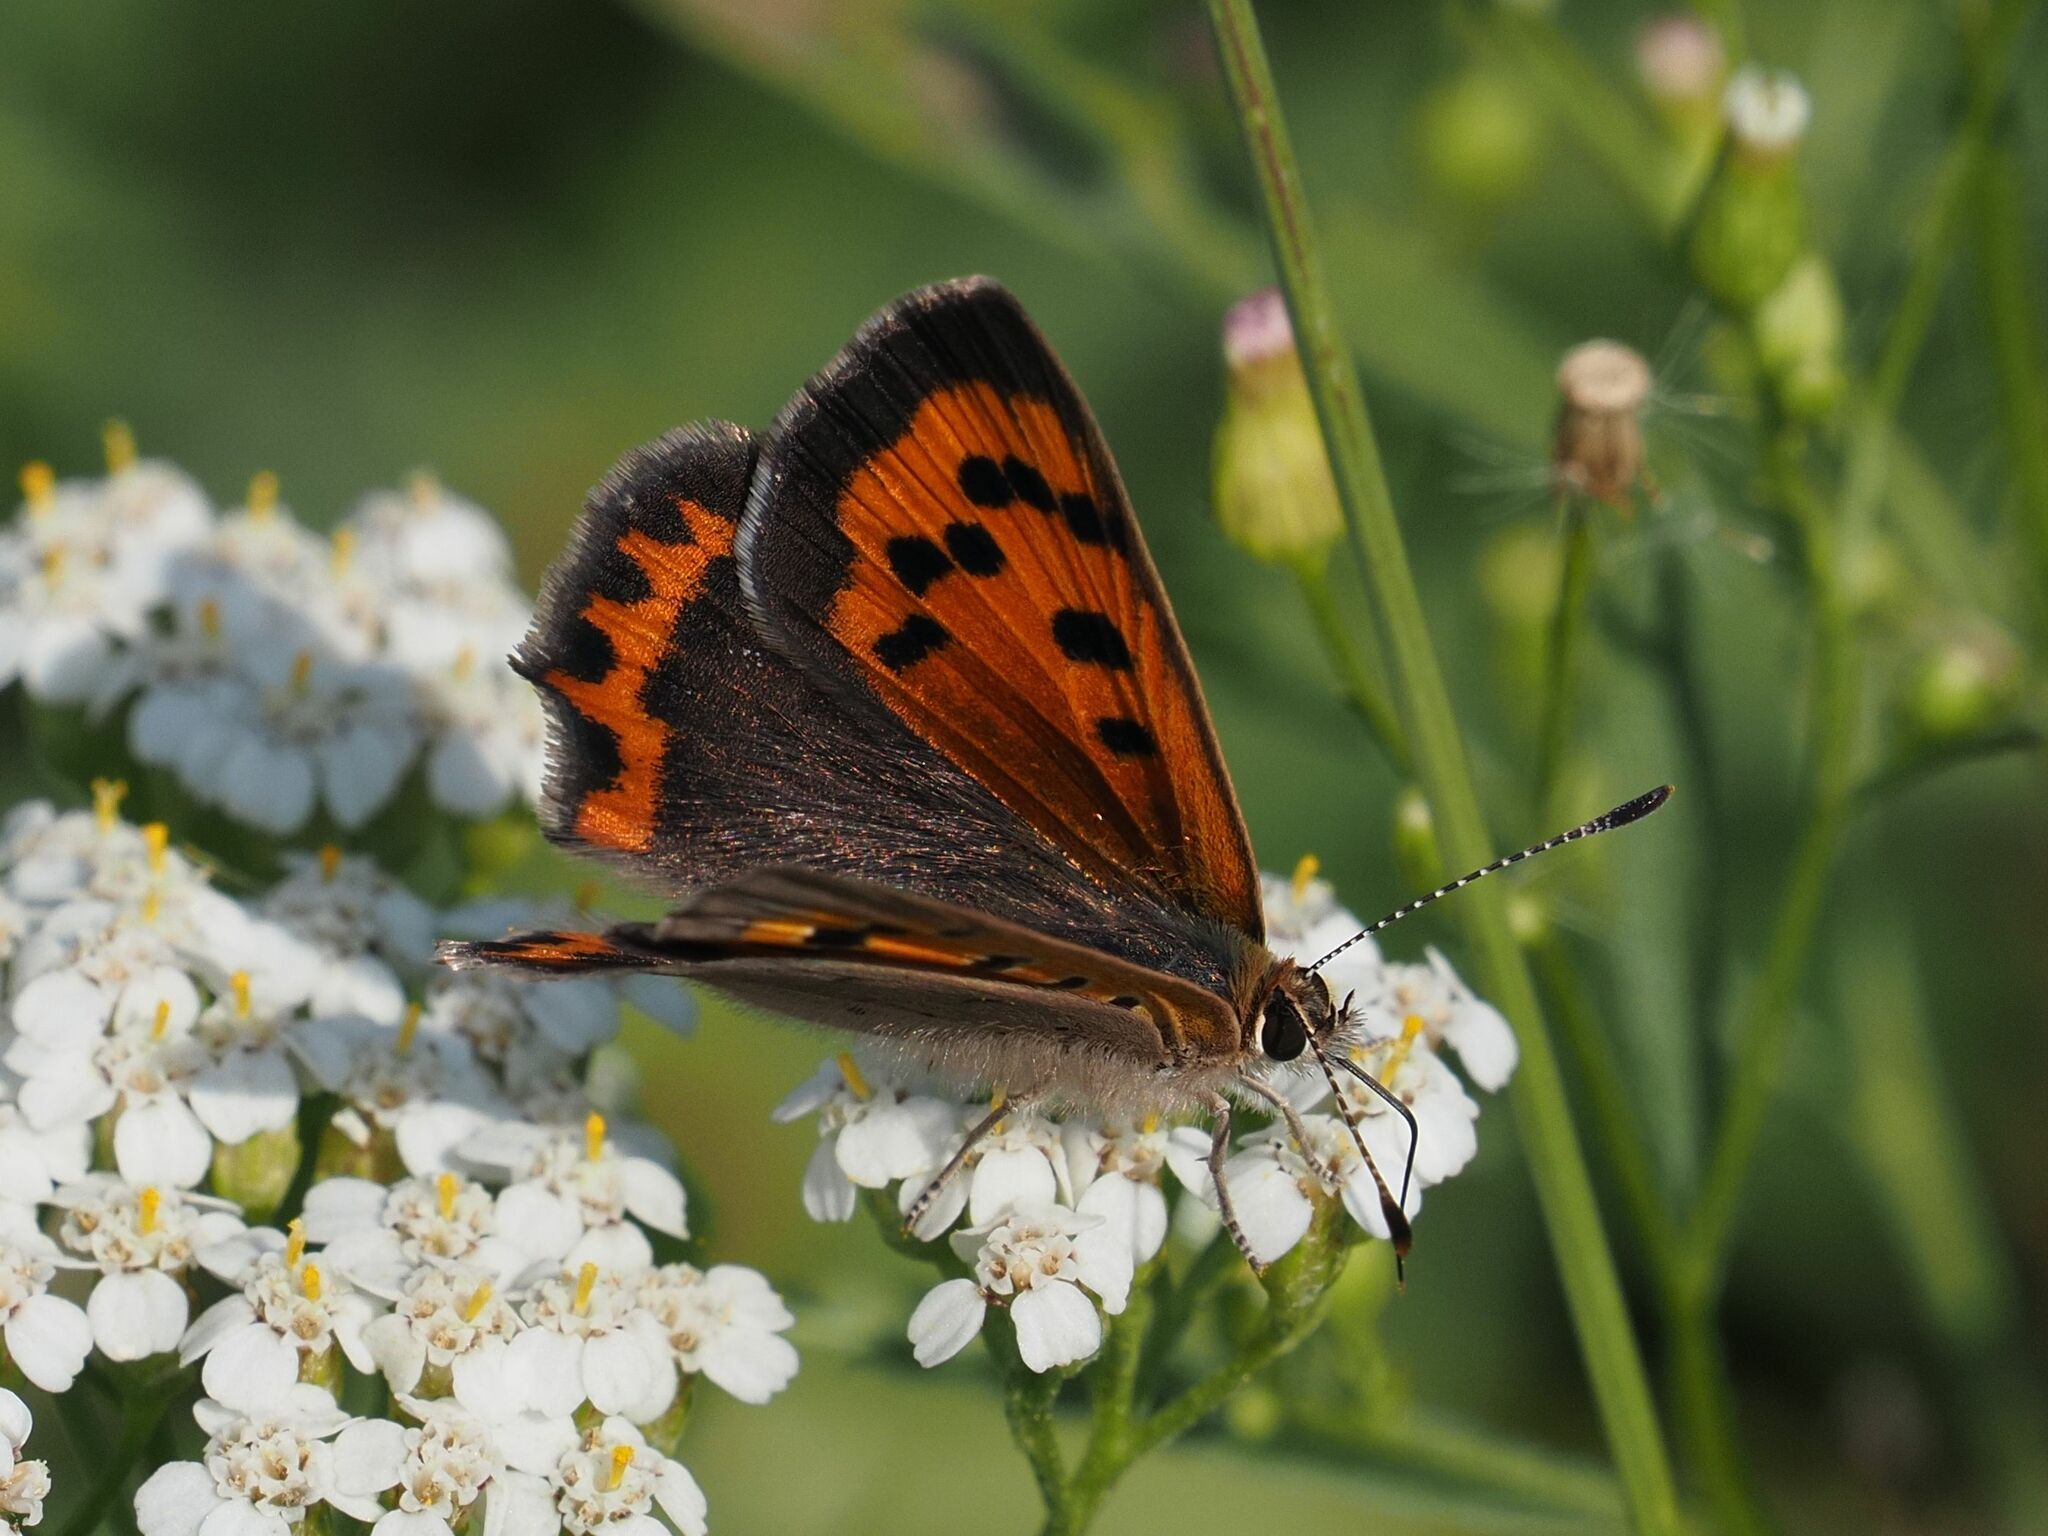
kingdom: Animalia
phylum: Arthropoda
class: Insecta
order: Lepidoptera
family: Lycaenidae
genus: Lycaena
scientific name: Lycaena phlaeas
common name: Small copper
